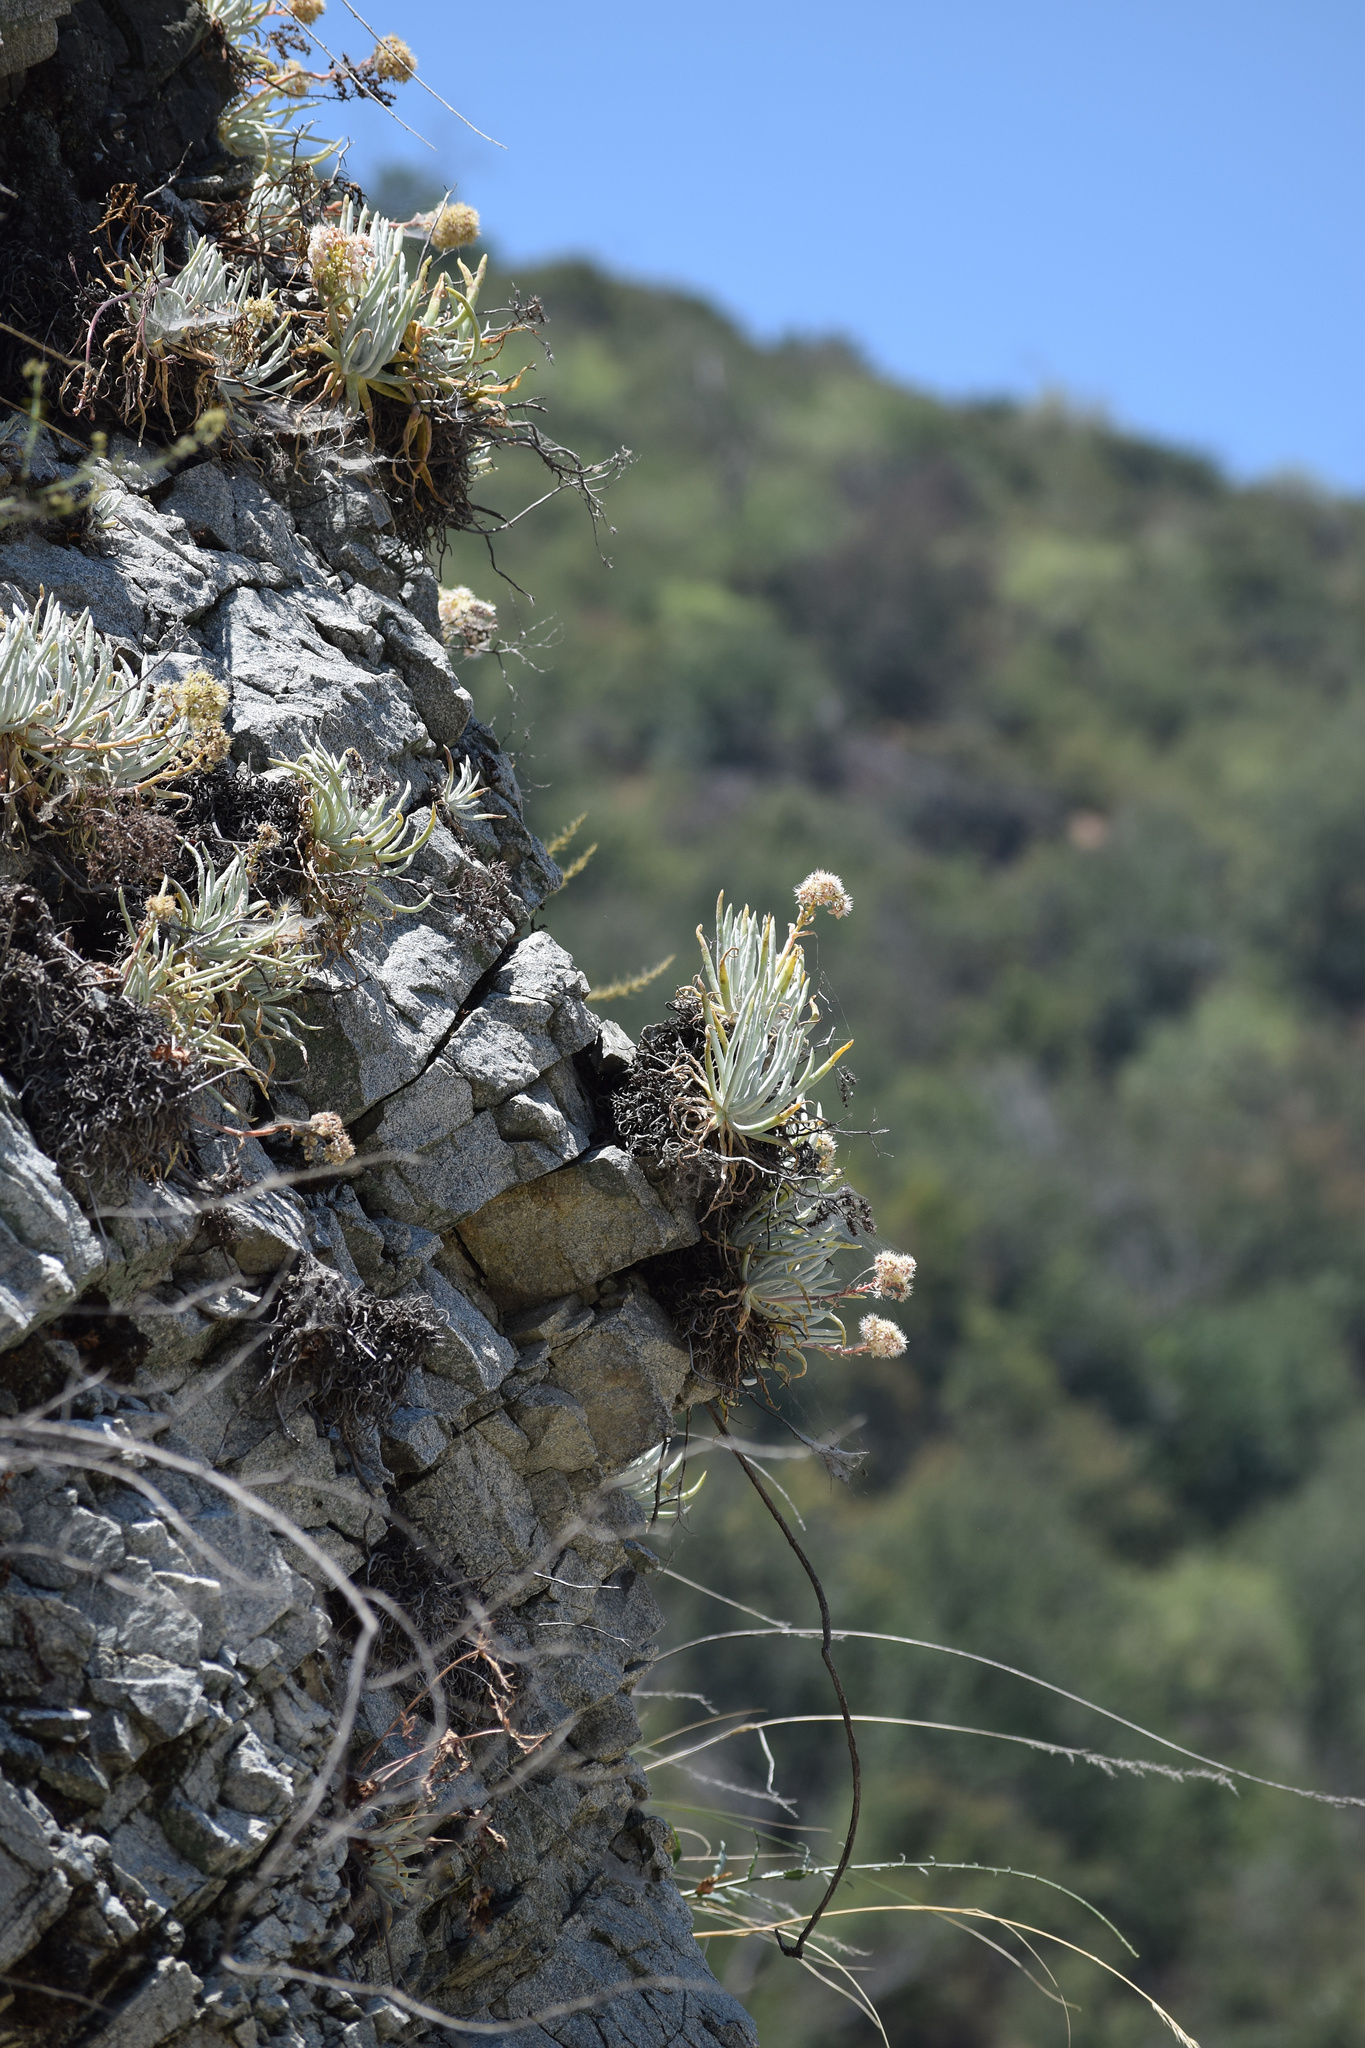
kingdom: Plantae
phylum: Tracheophyta
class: Magnoliopsida
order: Saxifragales
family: Crassulaceae
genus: Dudleya
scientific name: Dudleya densiflora
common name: San gabriel mountains dudleya
